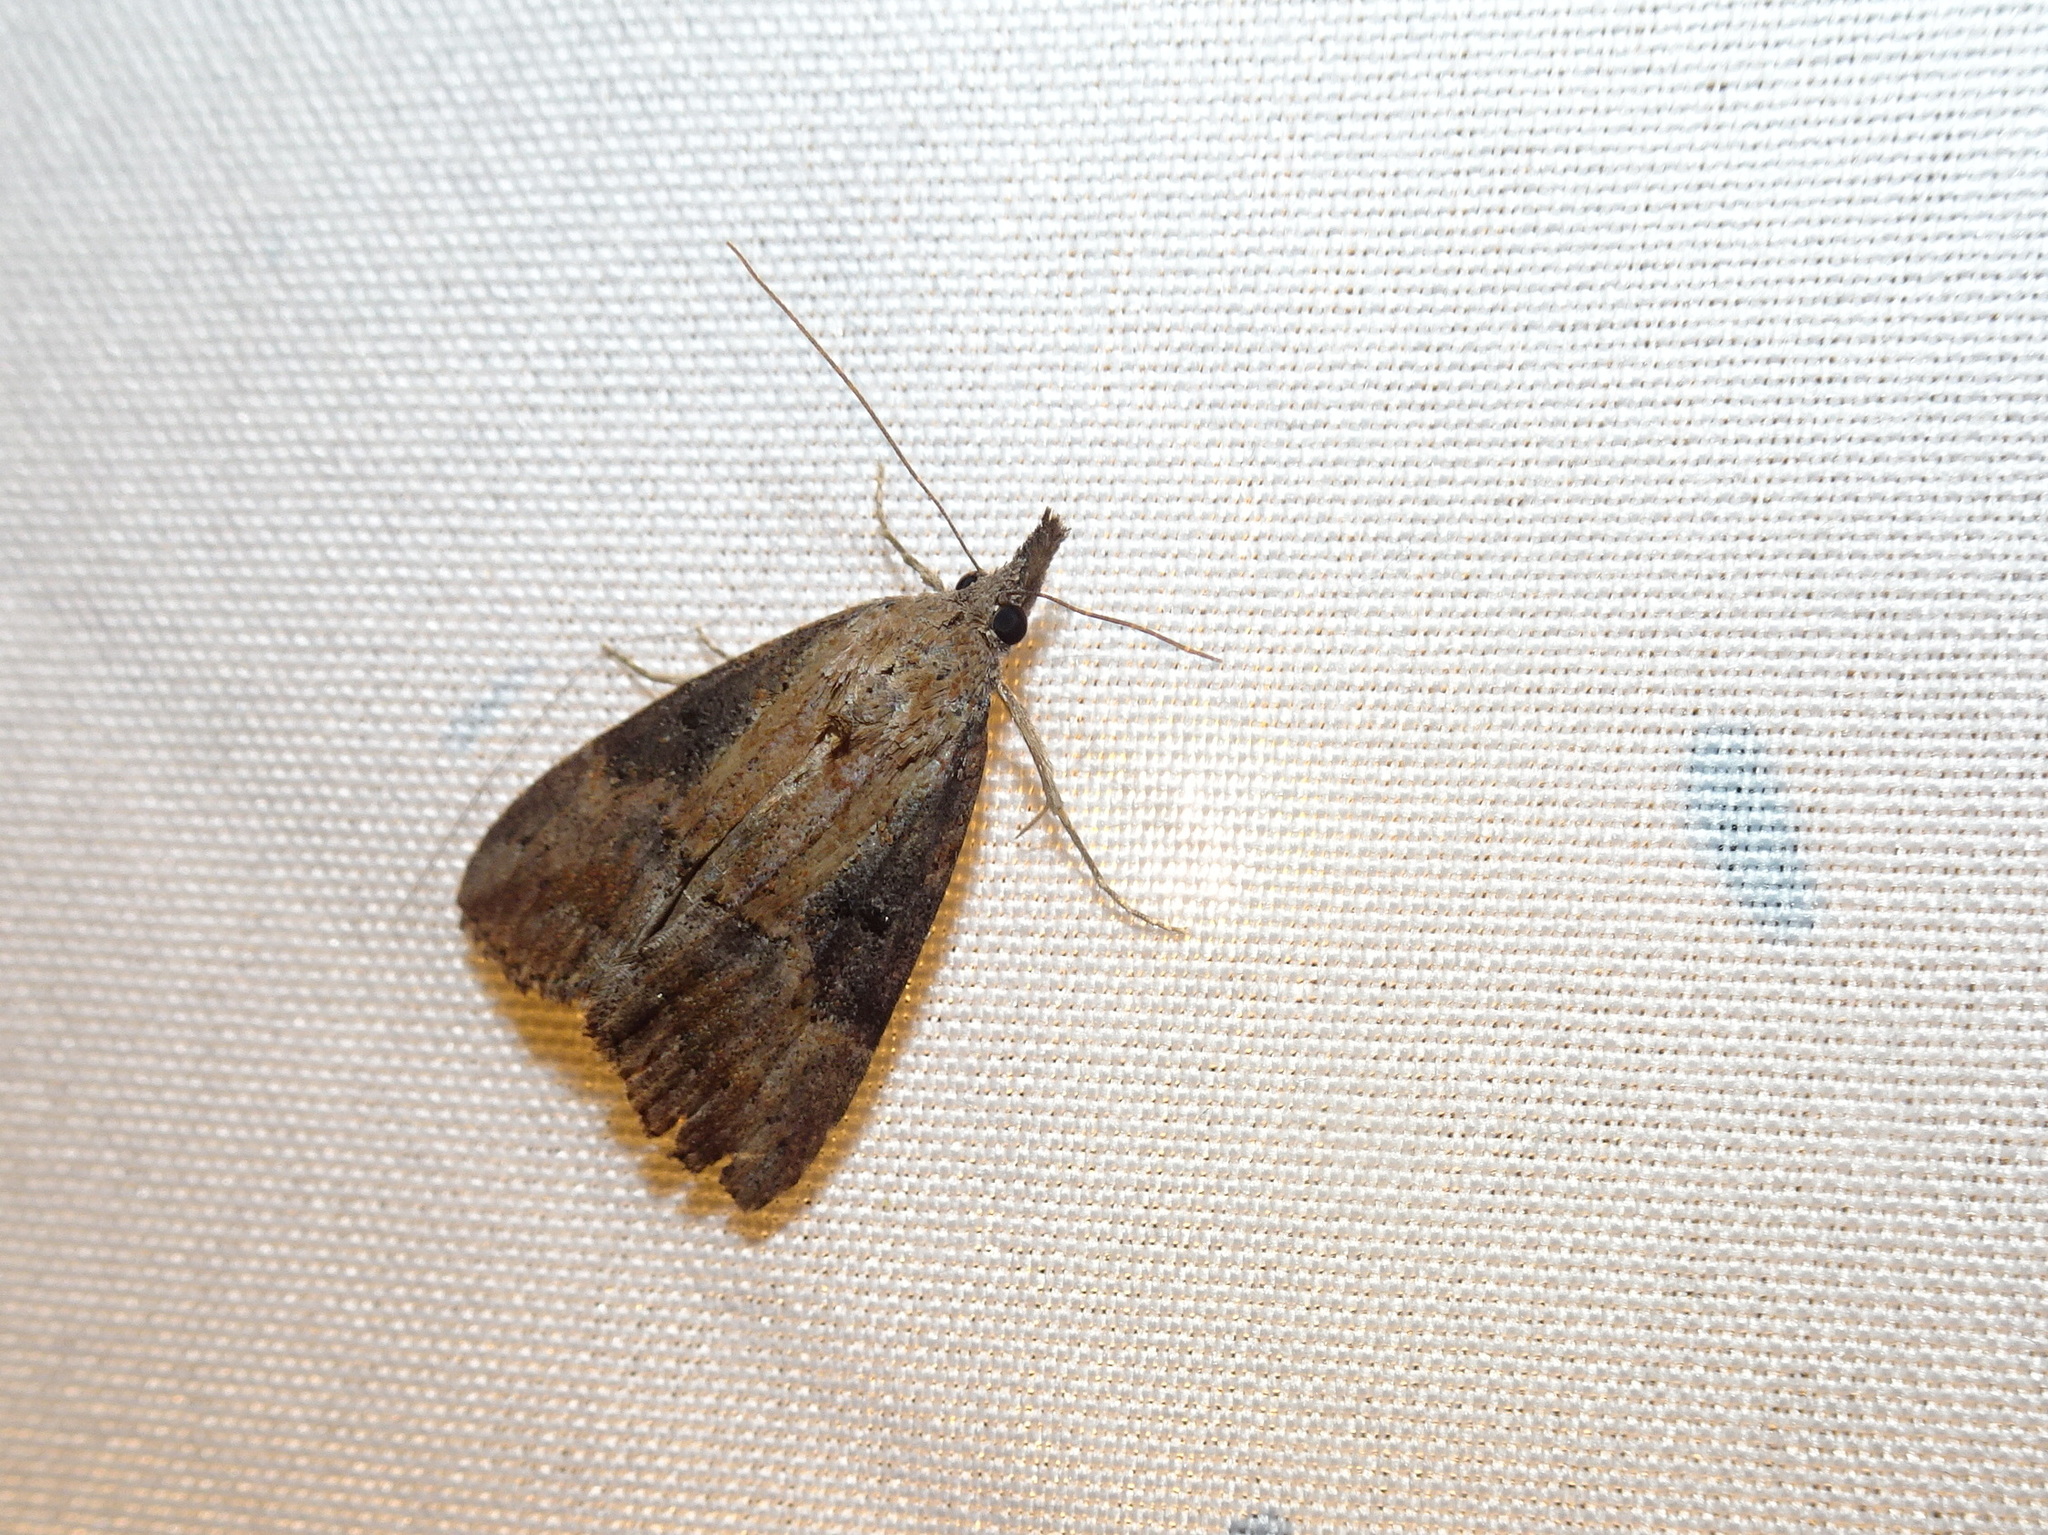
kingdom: Animalia
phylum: Arthropoda
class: Insecta
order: Lepidoptera
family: Erebidae
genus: Hypena
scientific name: Hypena scabra
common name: Green cloverworm
